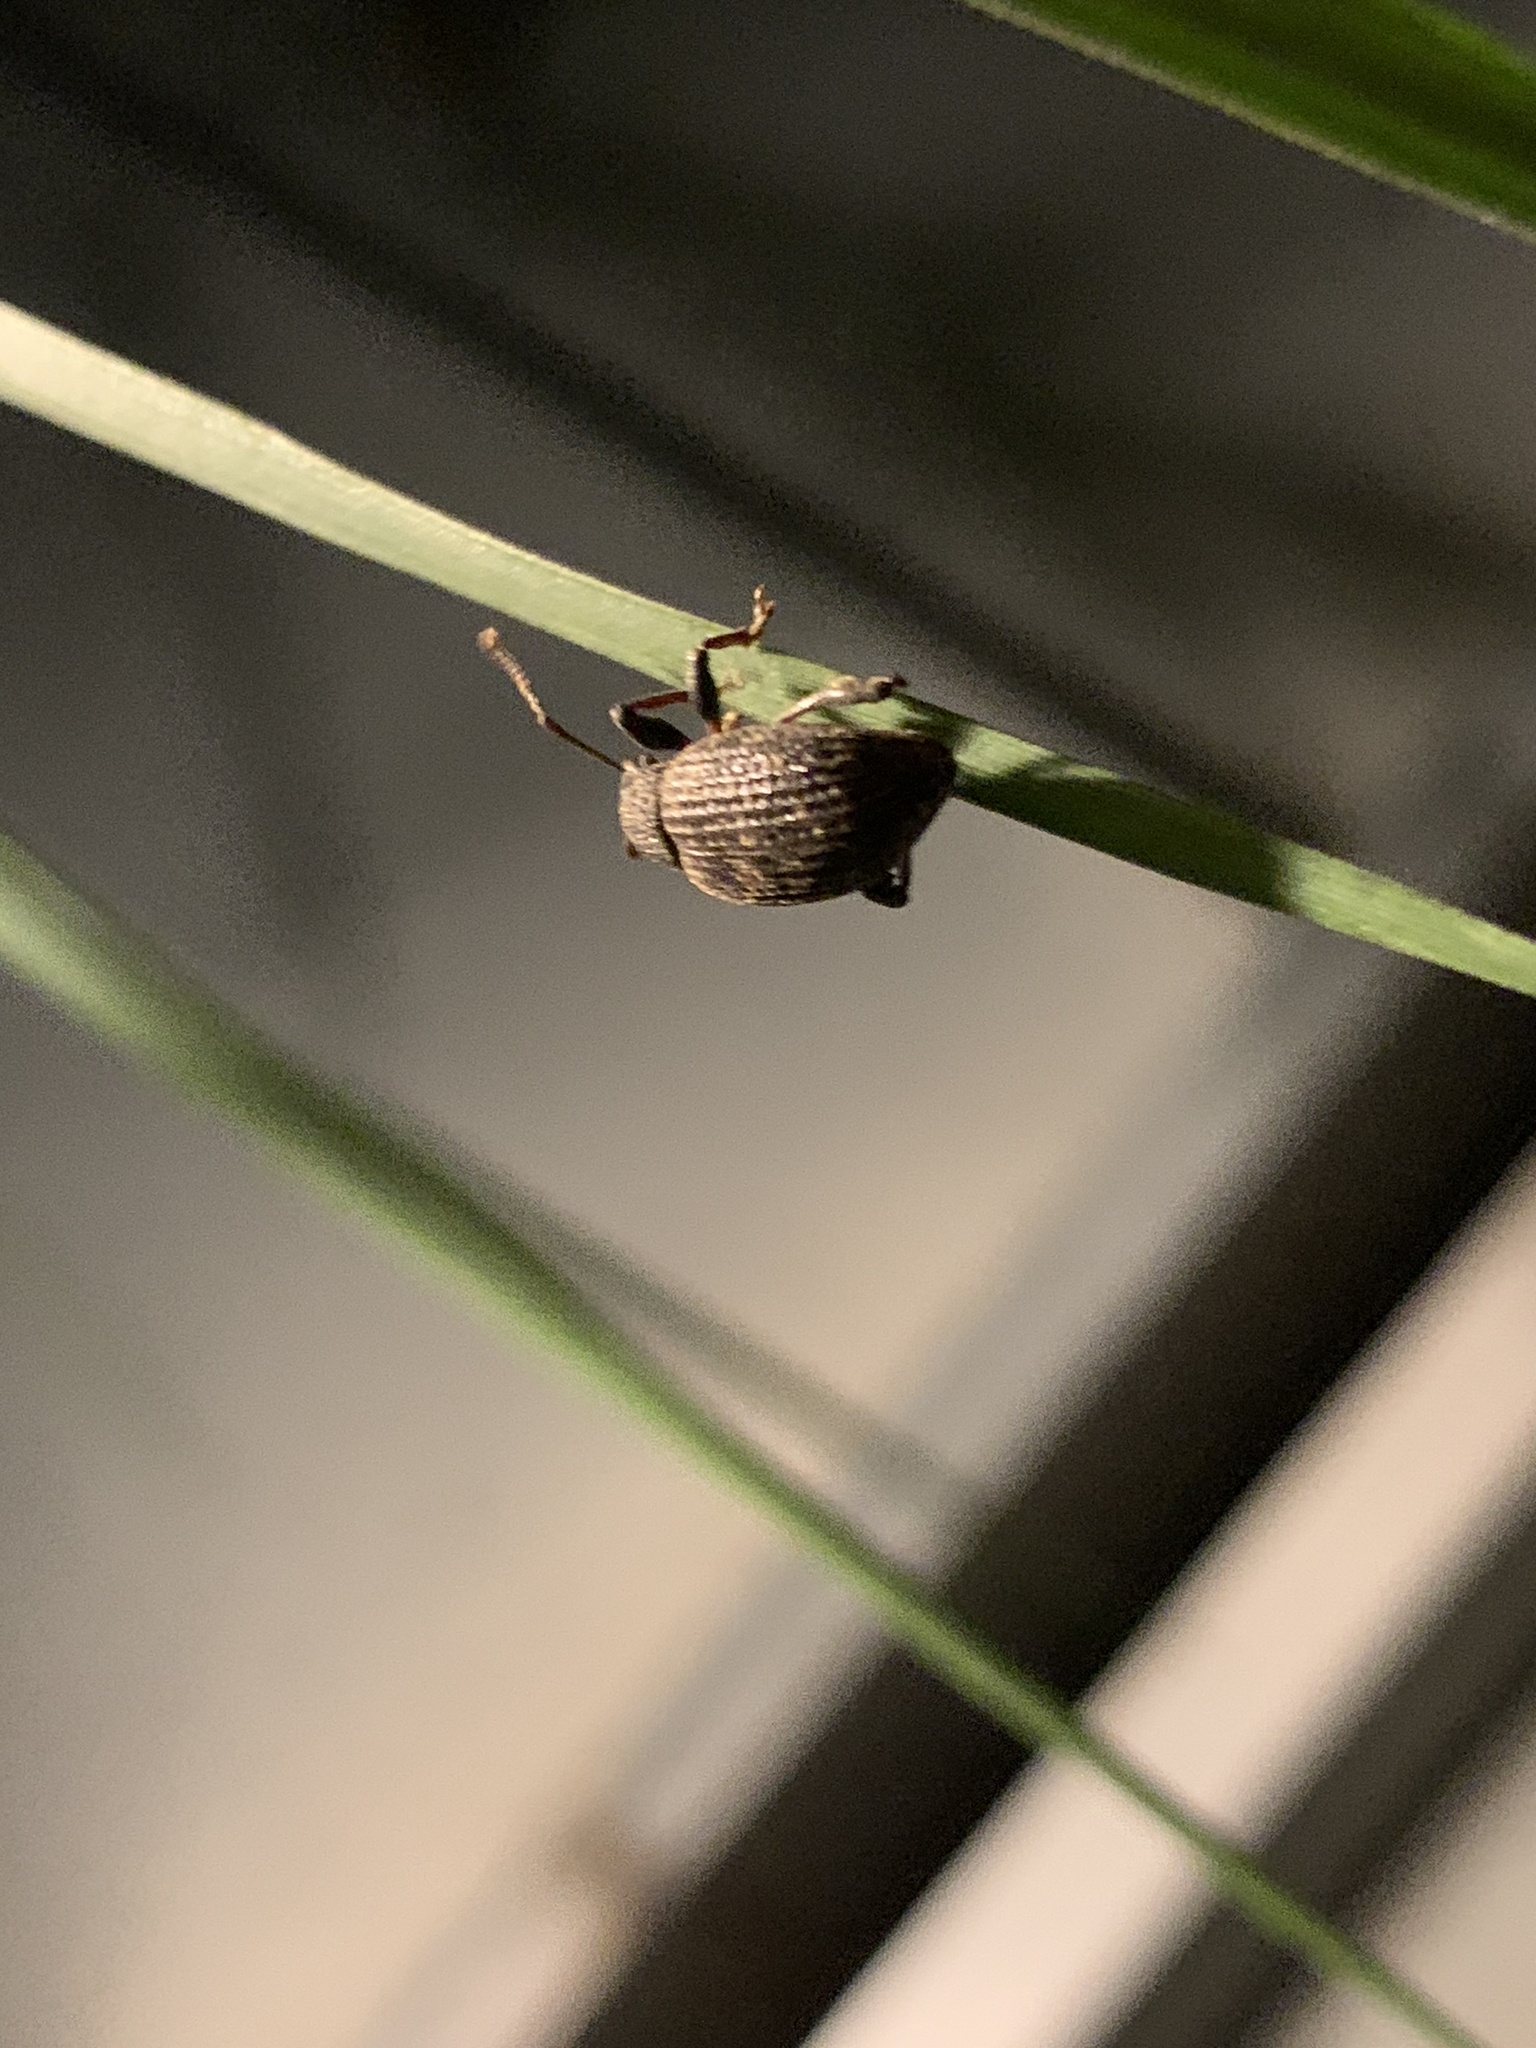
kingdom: Animalia
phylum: Arthropoda
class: Insecta
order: Coleoptera
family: Curculionidae
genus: Otiorhynchus
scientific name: Otiorhynchus sulcatus
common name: Black vine weevil
